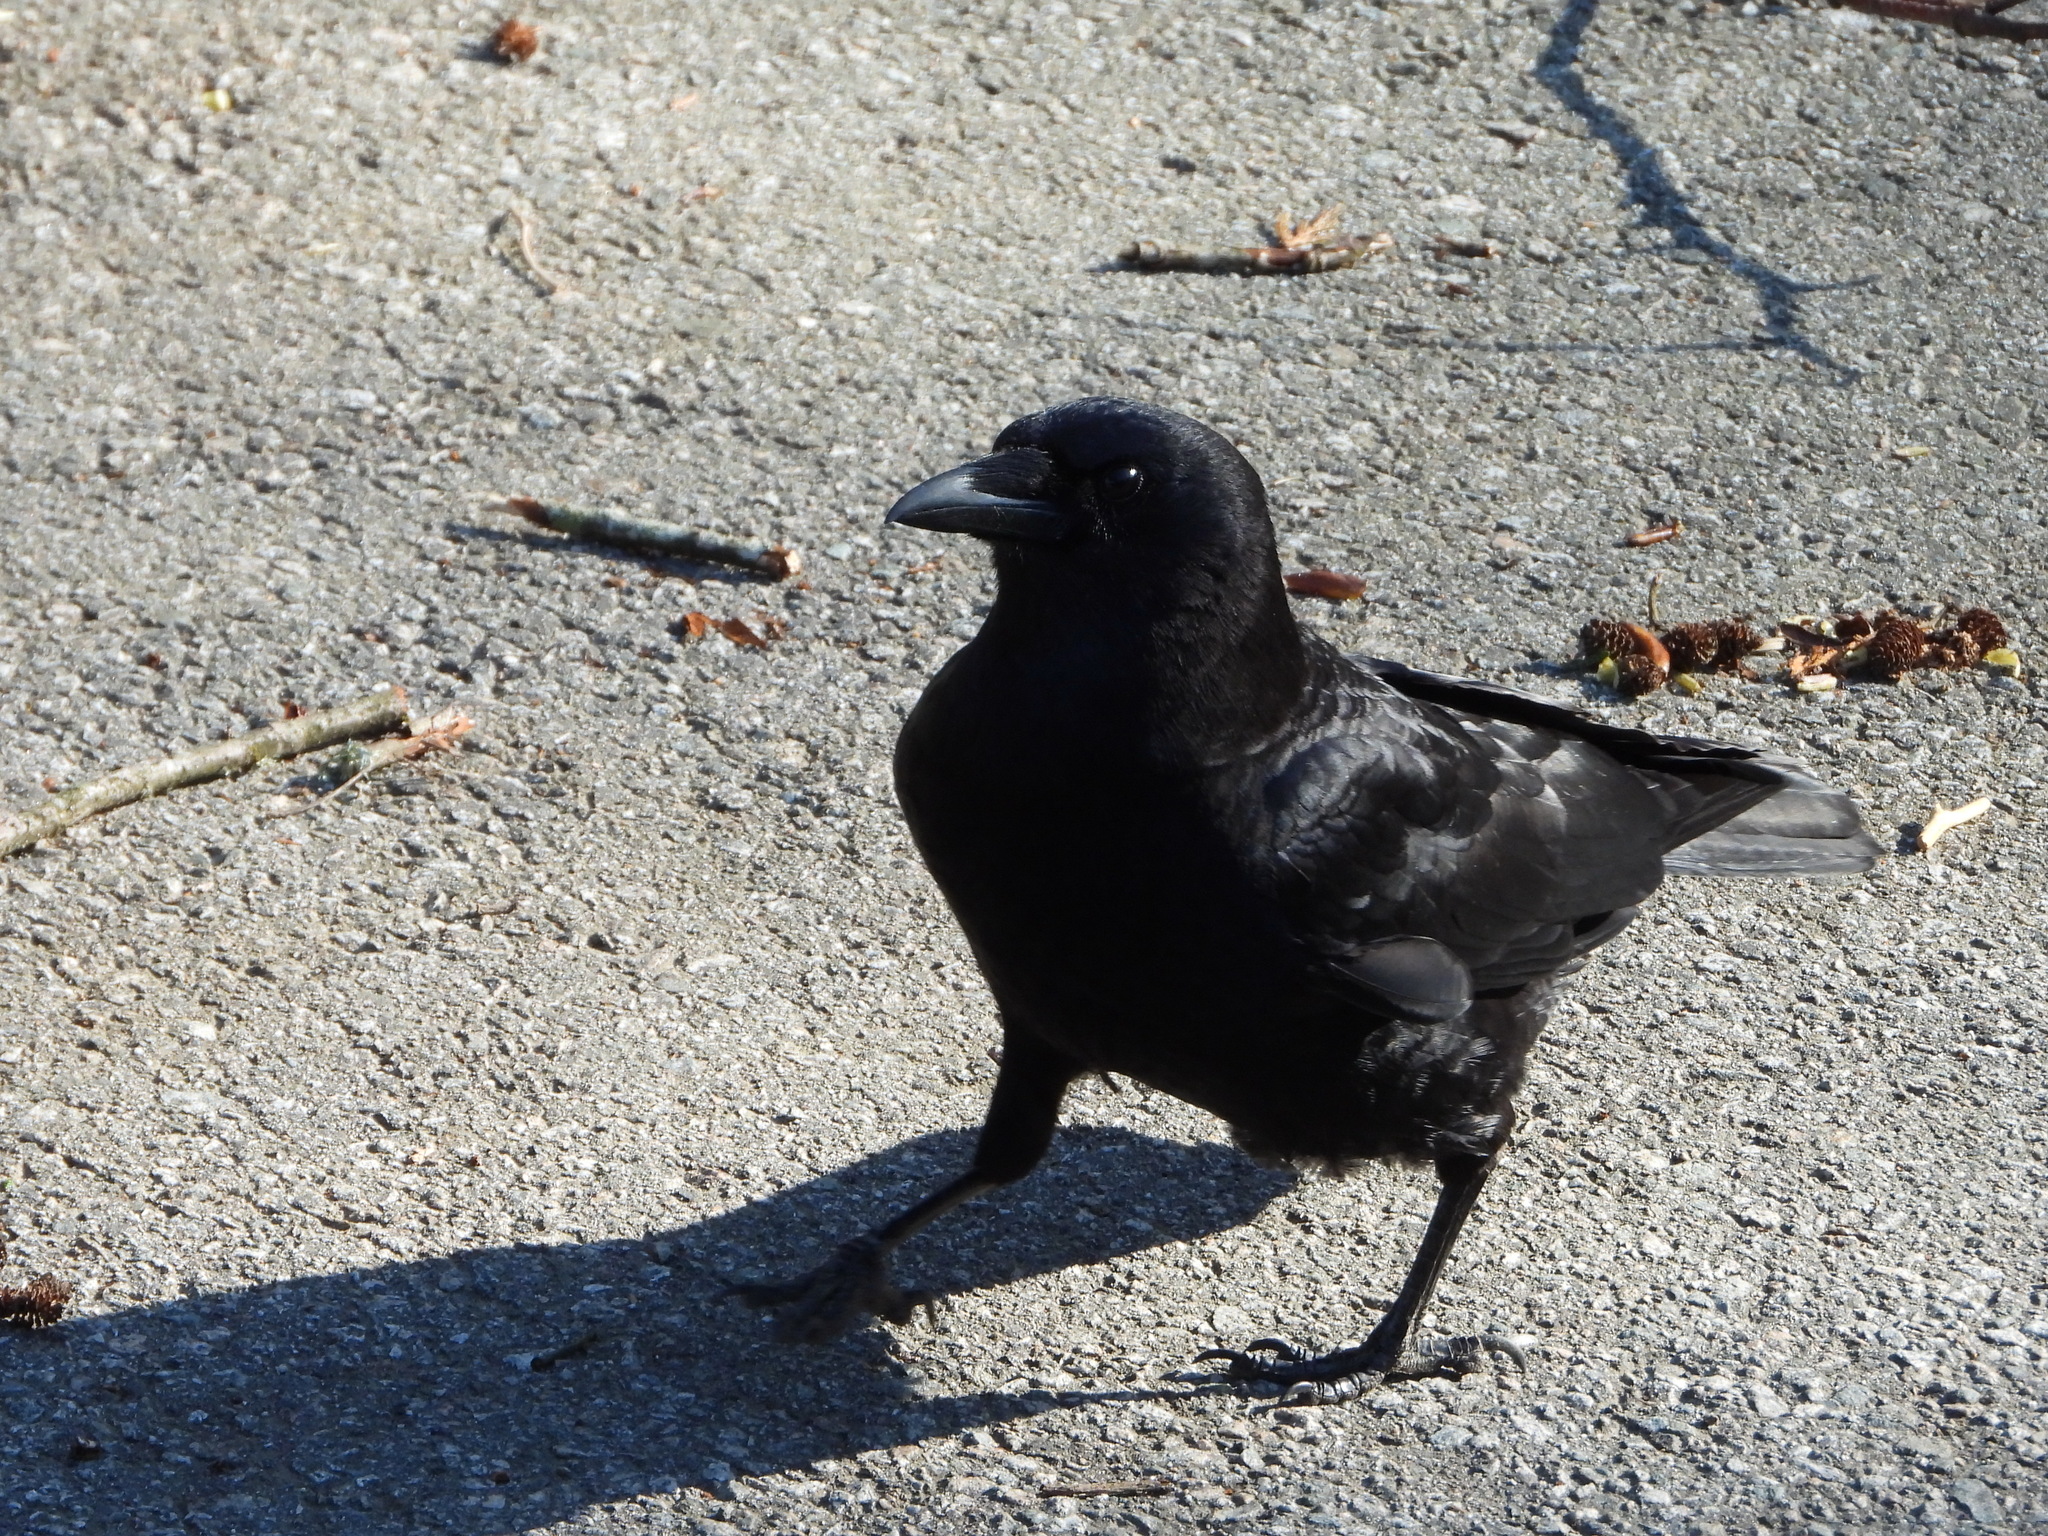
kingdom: Animalia
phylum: Chordata
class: Aves
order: Passeriformes
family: Corvidae
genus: Corvus
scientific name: Corvus brachyrhynchos
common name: American crow
